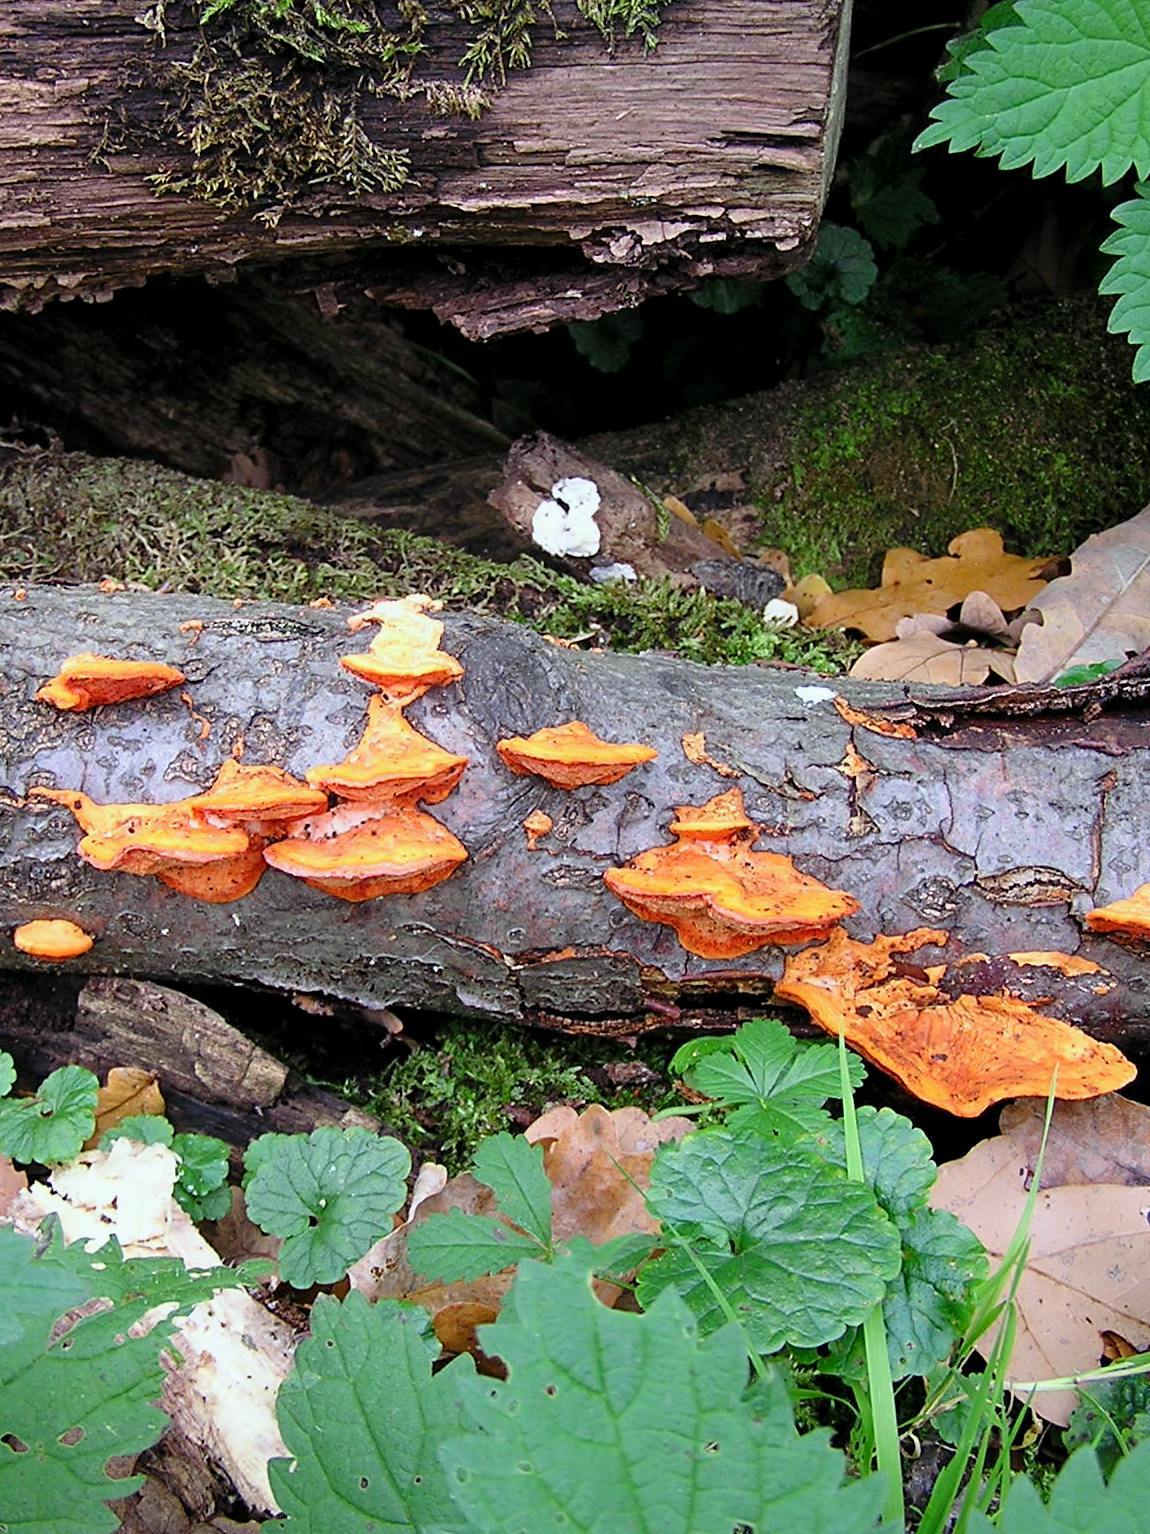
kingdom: Fungi
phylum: Basidiomycota
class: Agaricomycetes
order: Polyporales
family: Polyporaceae
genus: Trametes
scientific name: Trametes cinnabarina
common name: Northern cinnabar polypore
